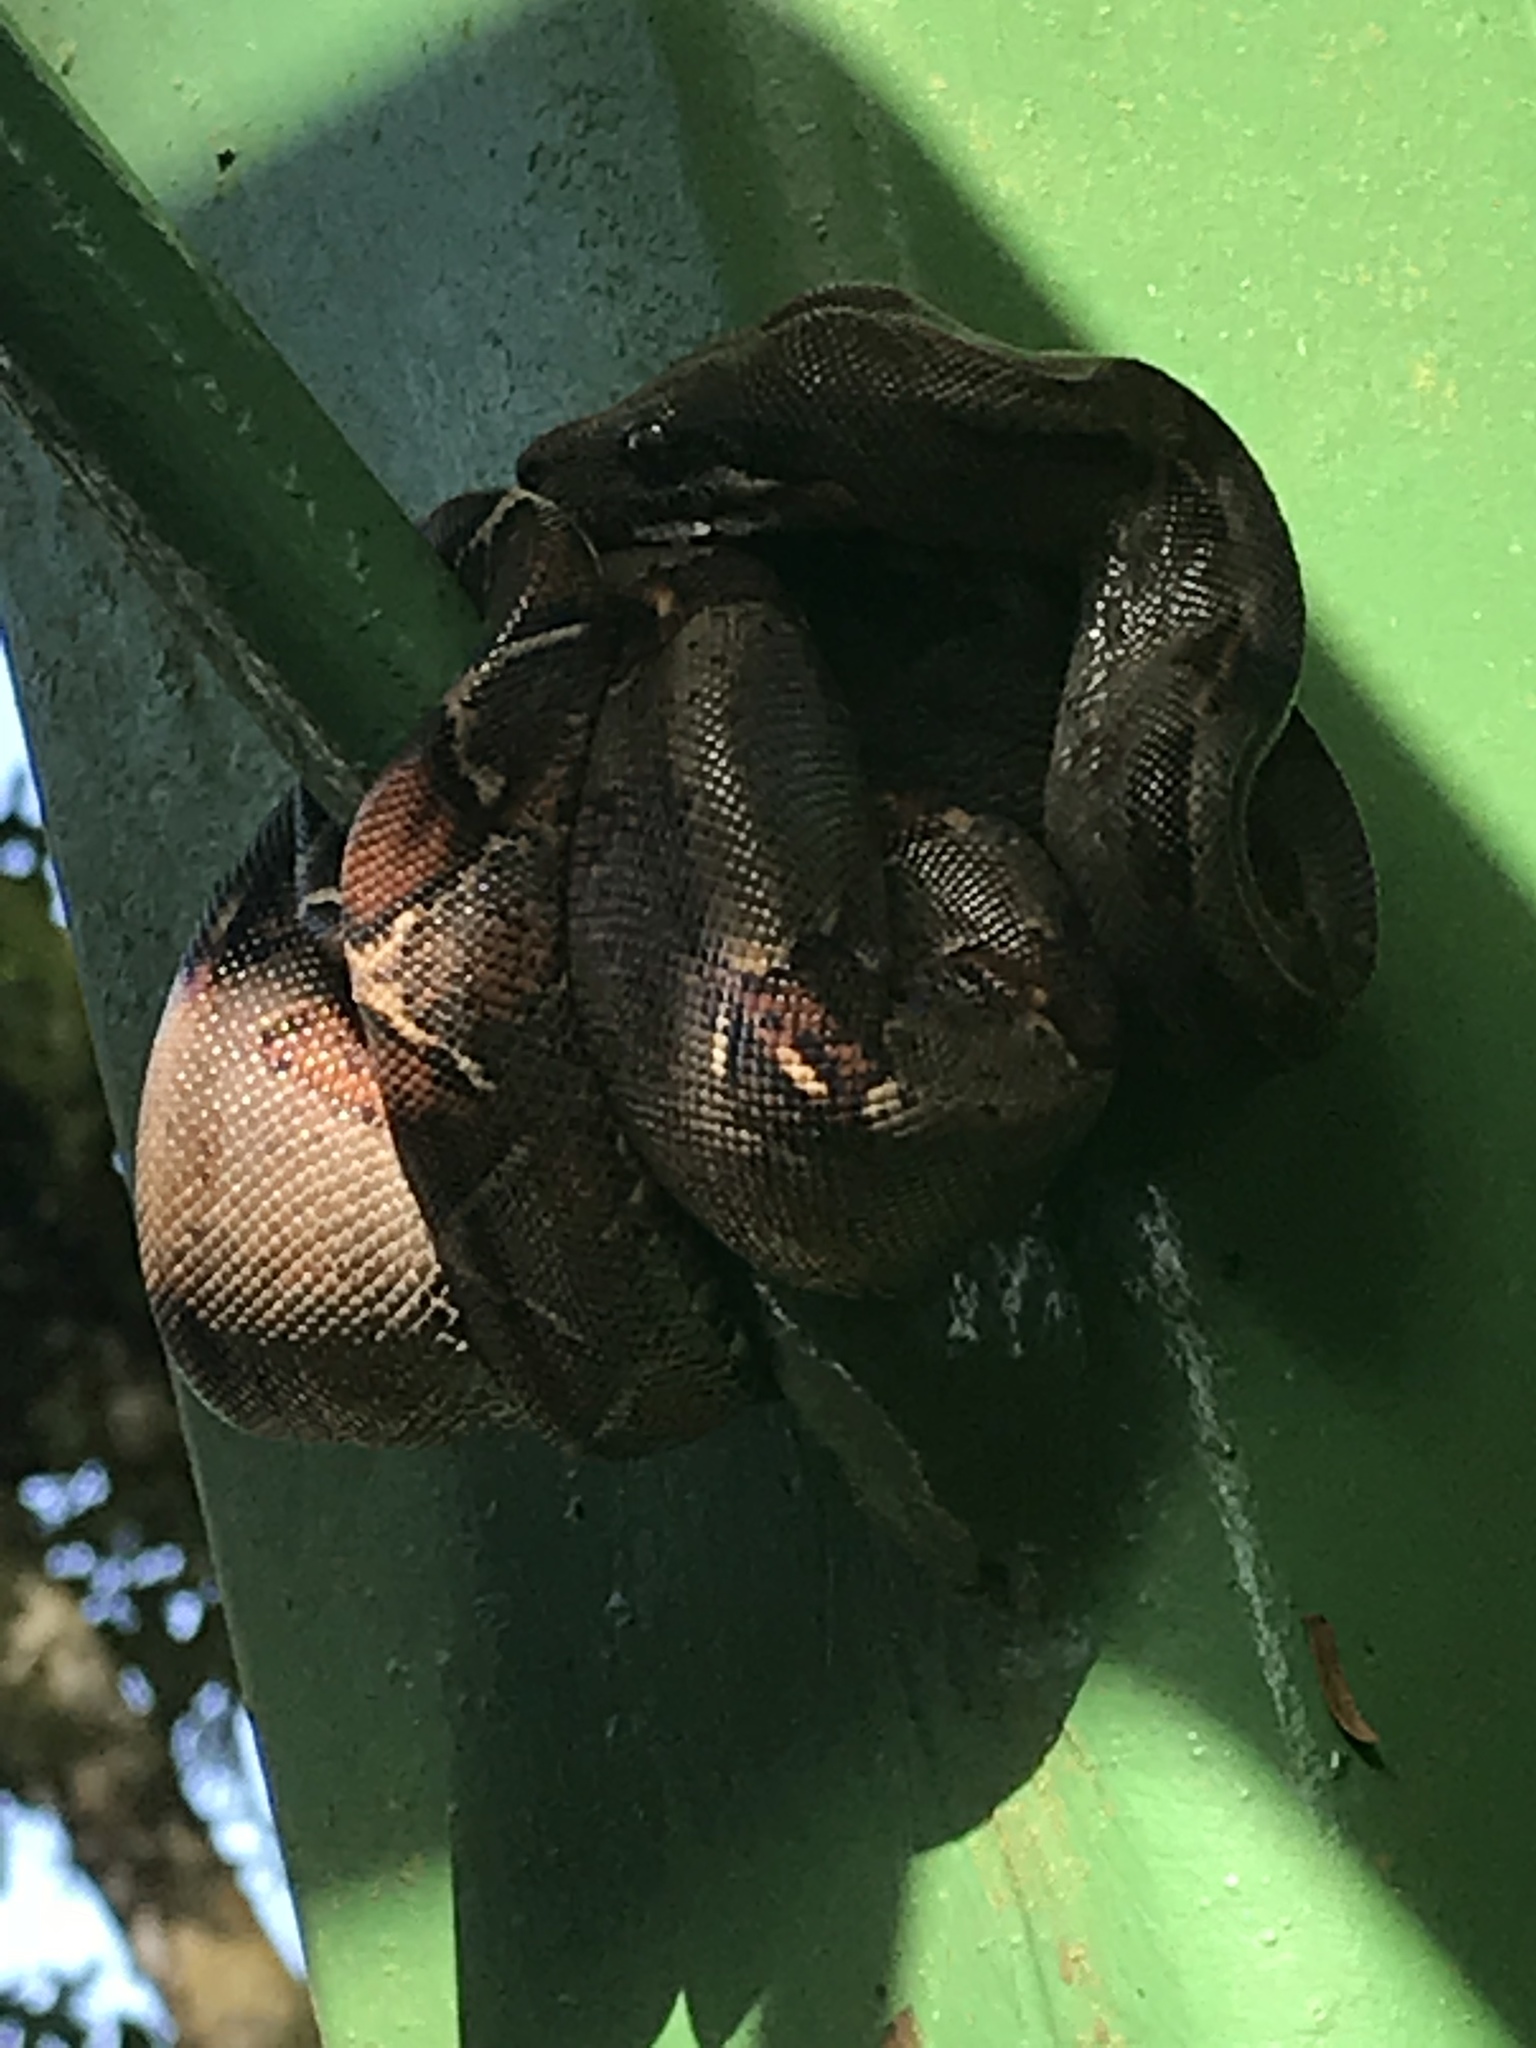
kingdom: Animalia
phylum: Chordata
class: Squamata
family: Boidae
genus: Boa
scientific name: Boa imperator
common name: Central american boa
